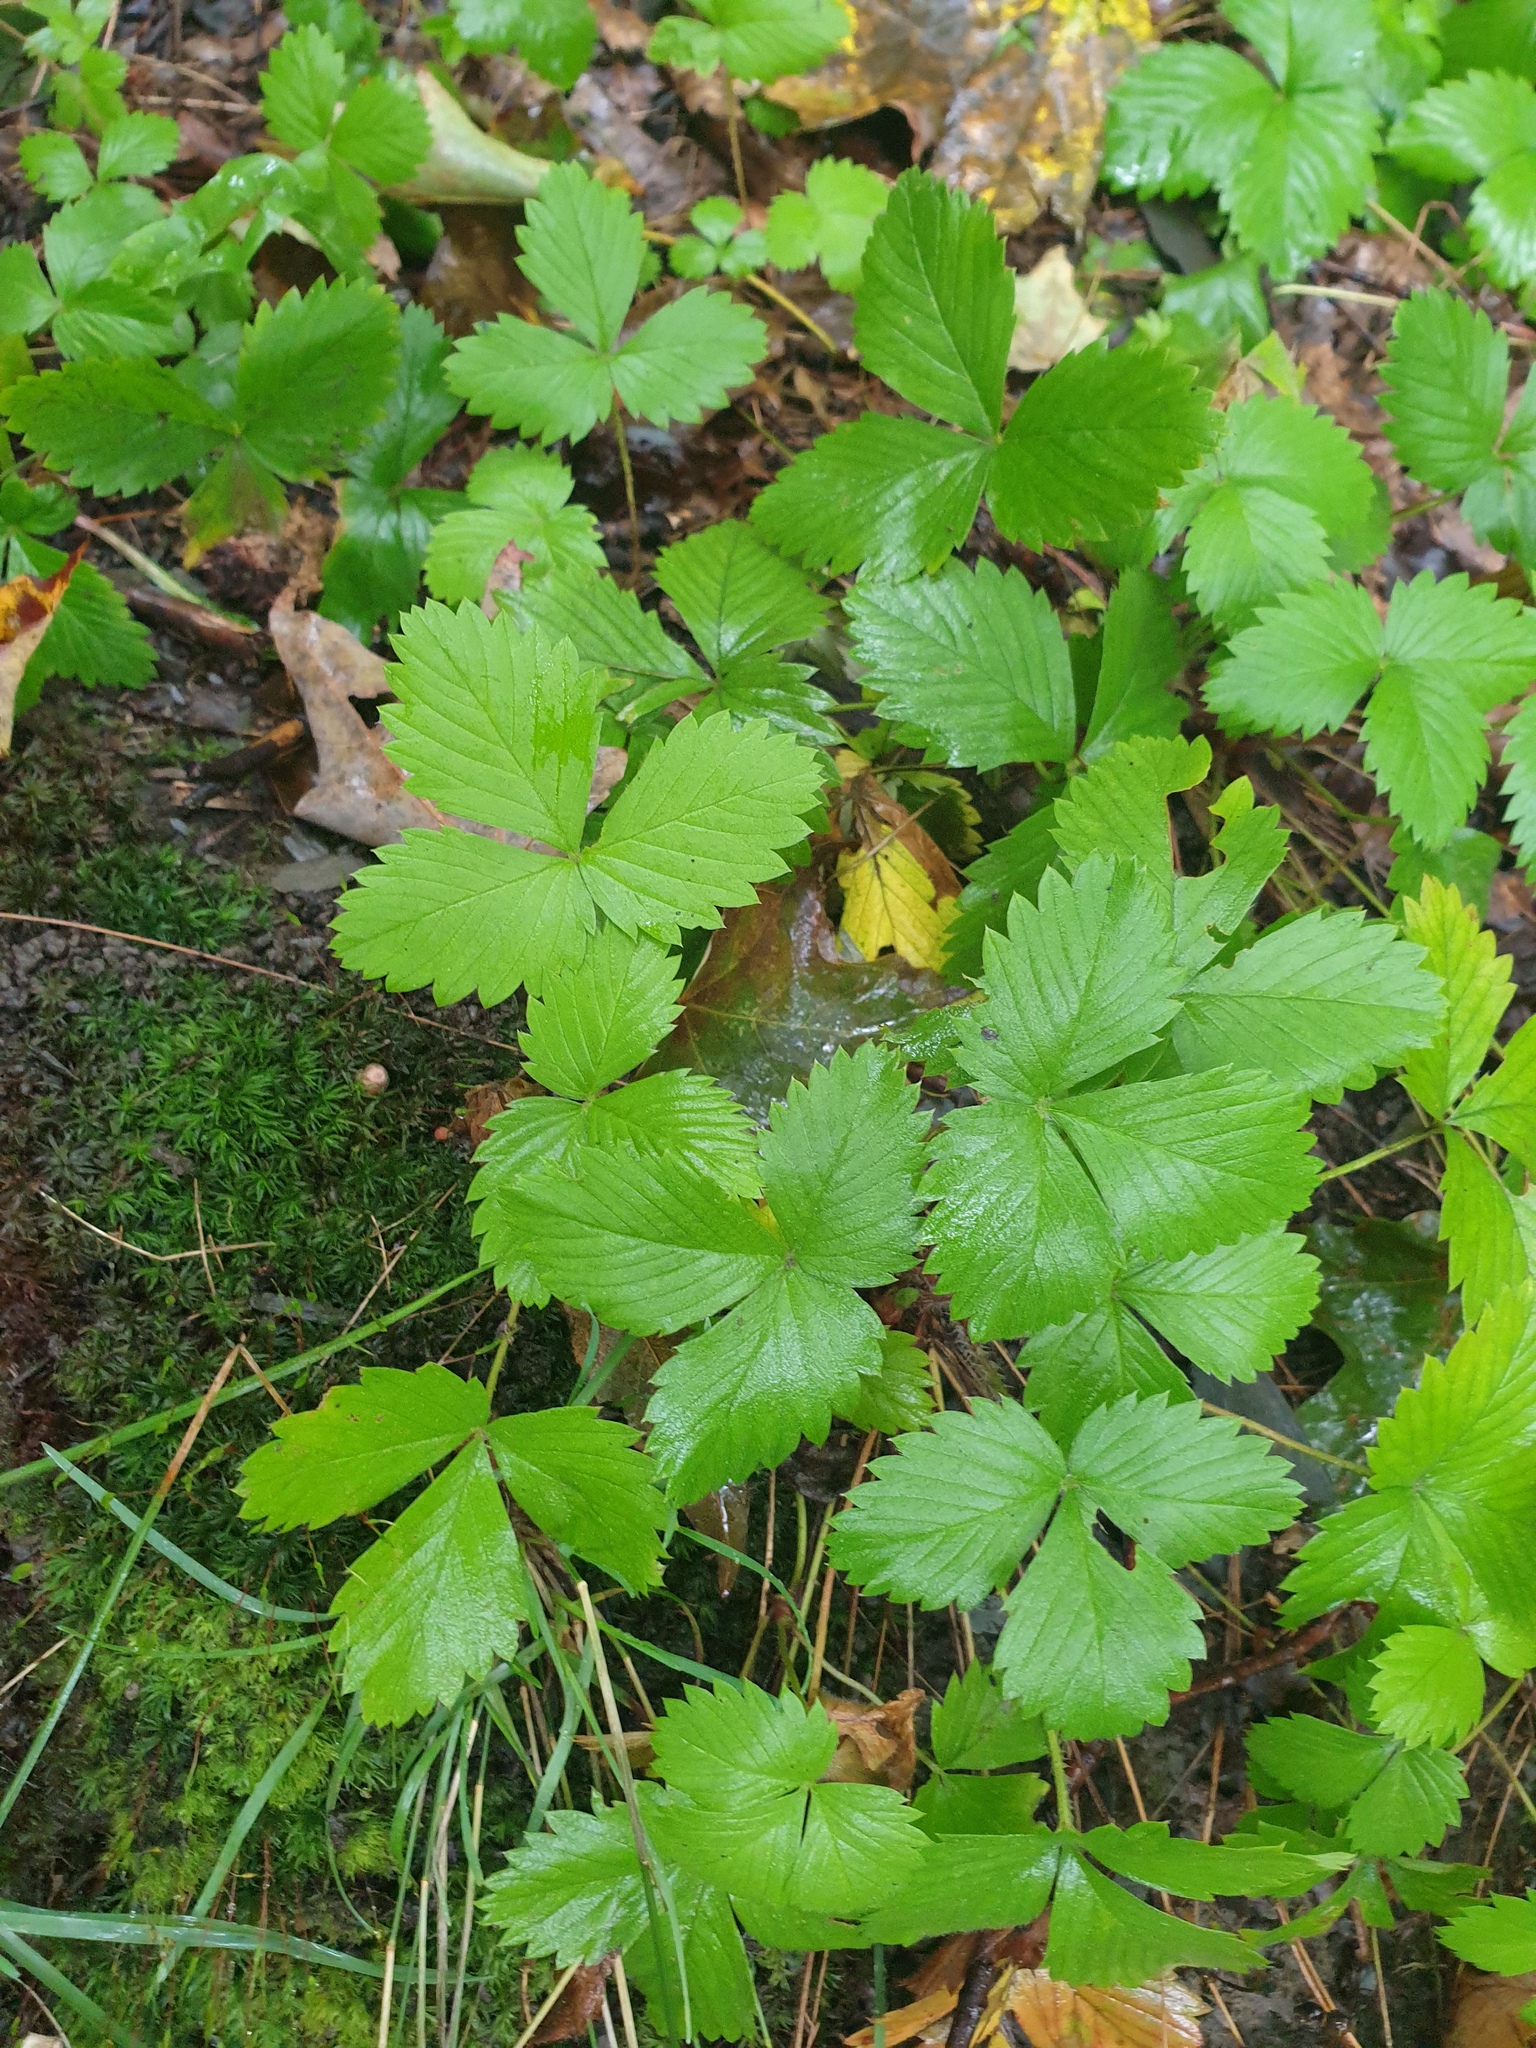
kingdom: Plantae
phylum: Tracheophyta
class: Magnoliopsida
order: Rosales
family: Rosaceae
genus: Fragaria
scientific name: Fragaria vesca
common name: Wild strawberry
